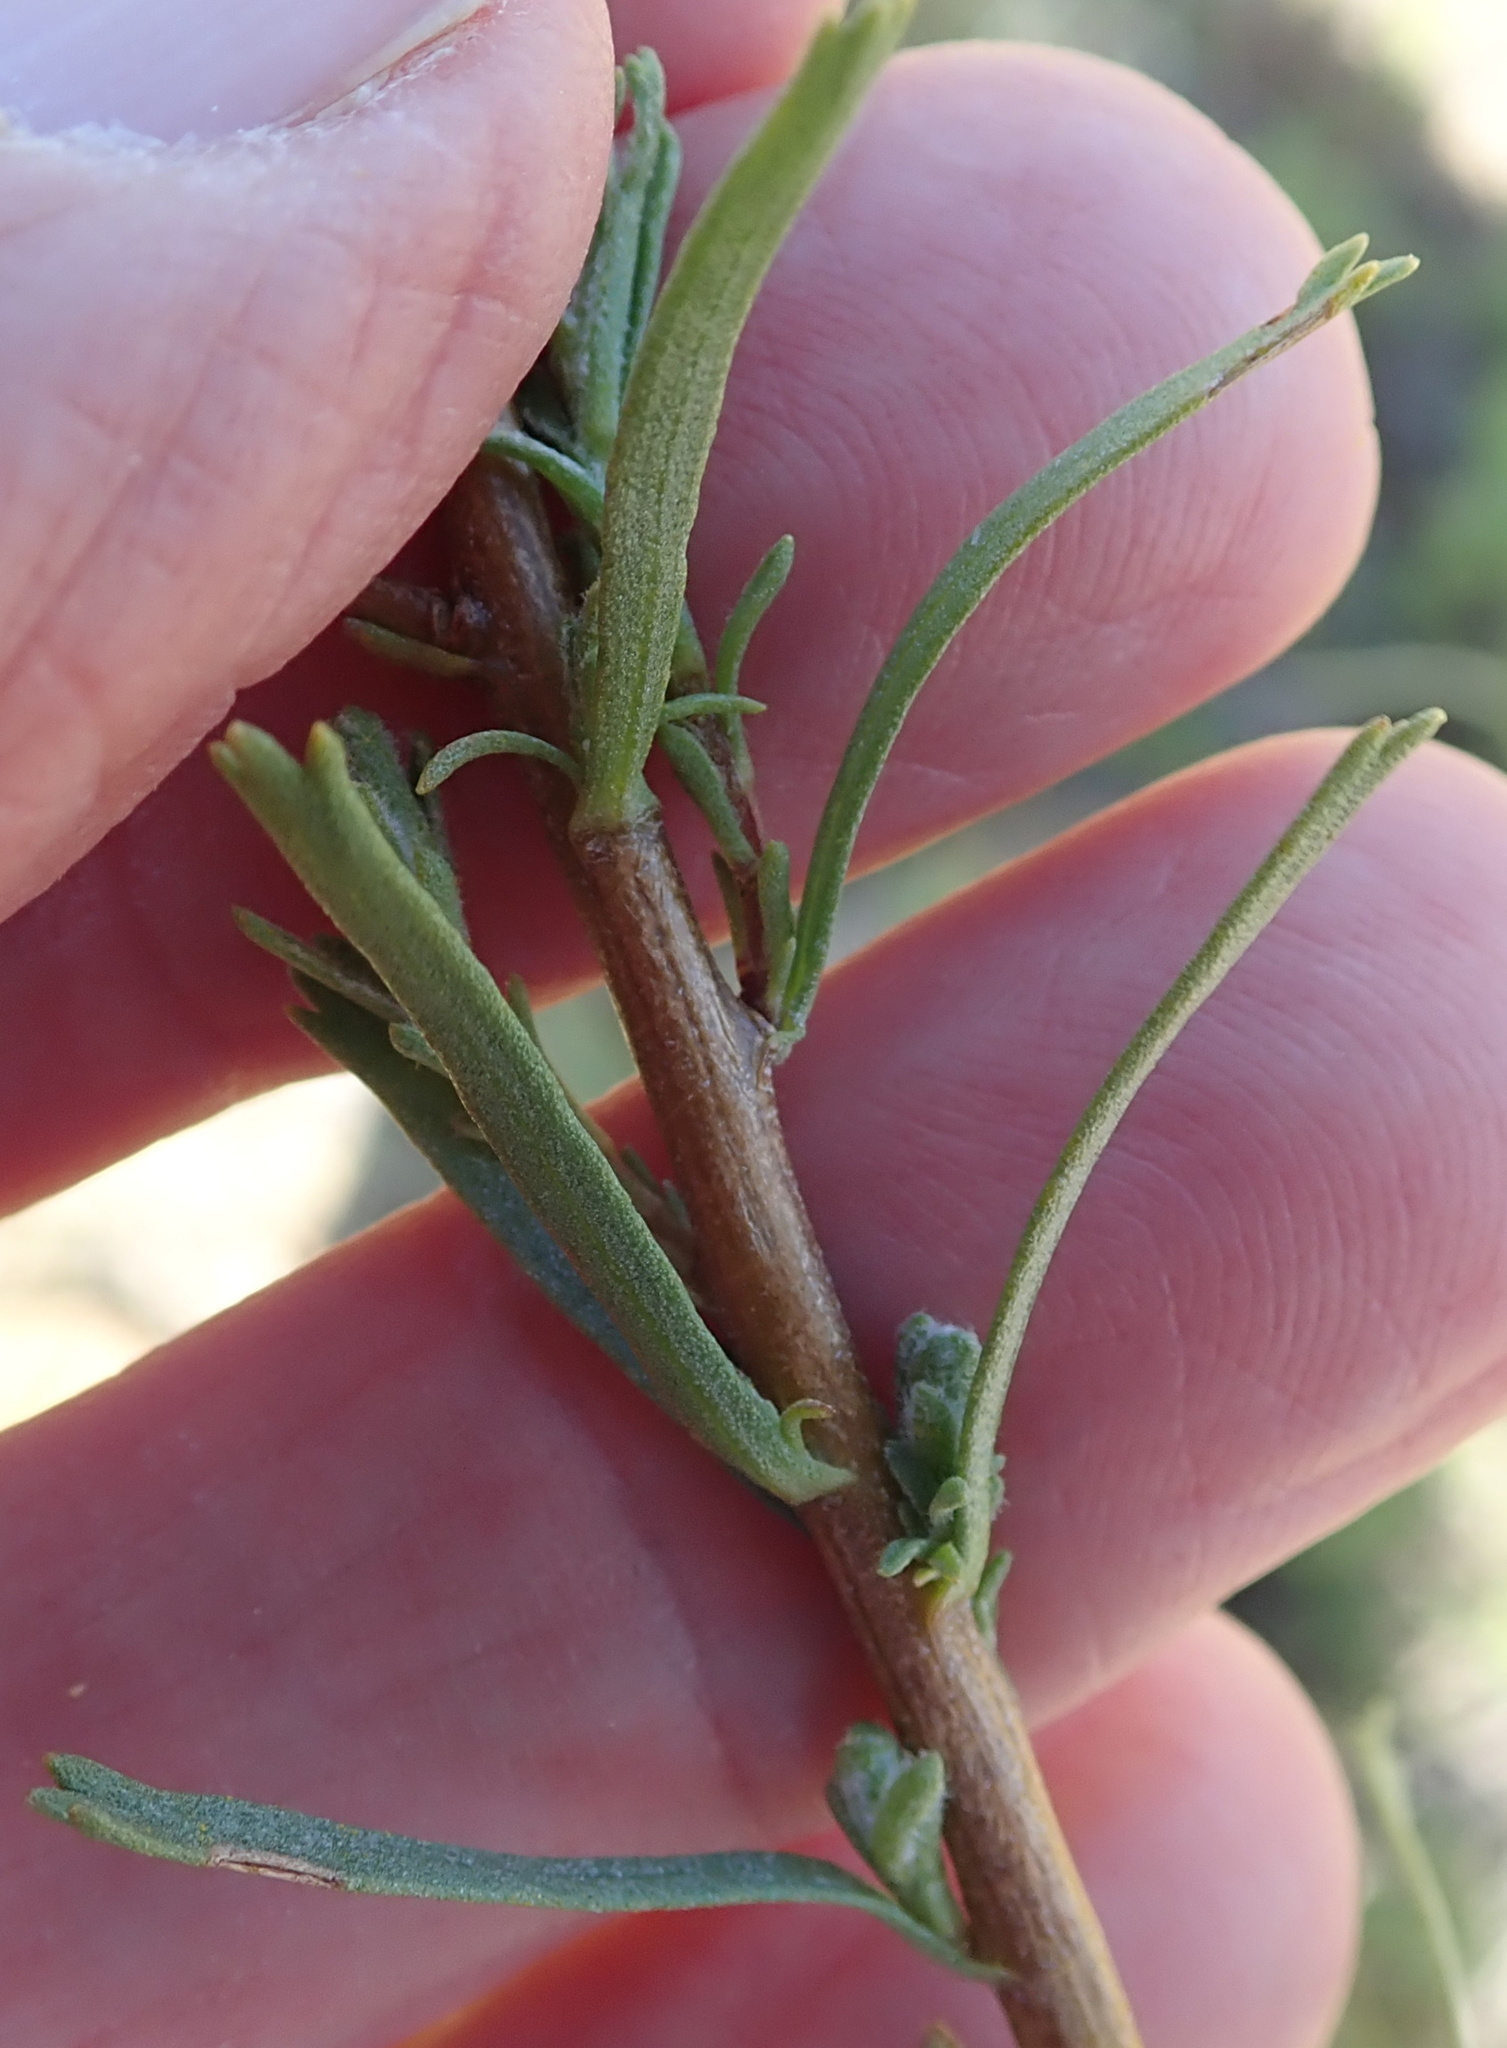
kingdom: Plantae
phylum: Tracheophyta
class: Magnoliopsida
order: Asterales
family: Asteraceae
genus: Pentzia
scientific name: Pentzia cooperi
